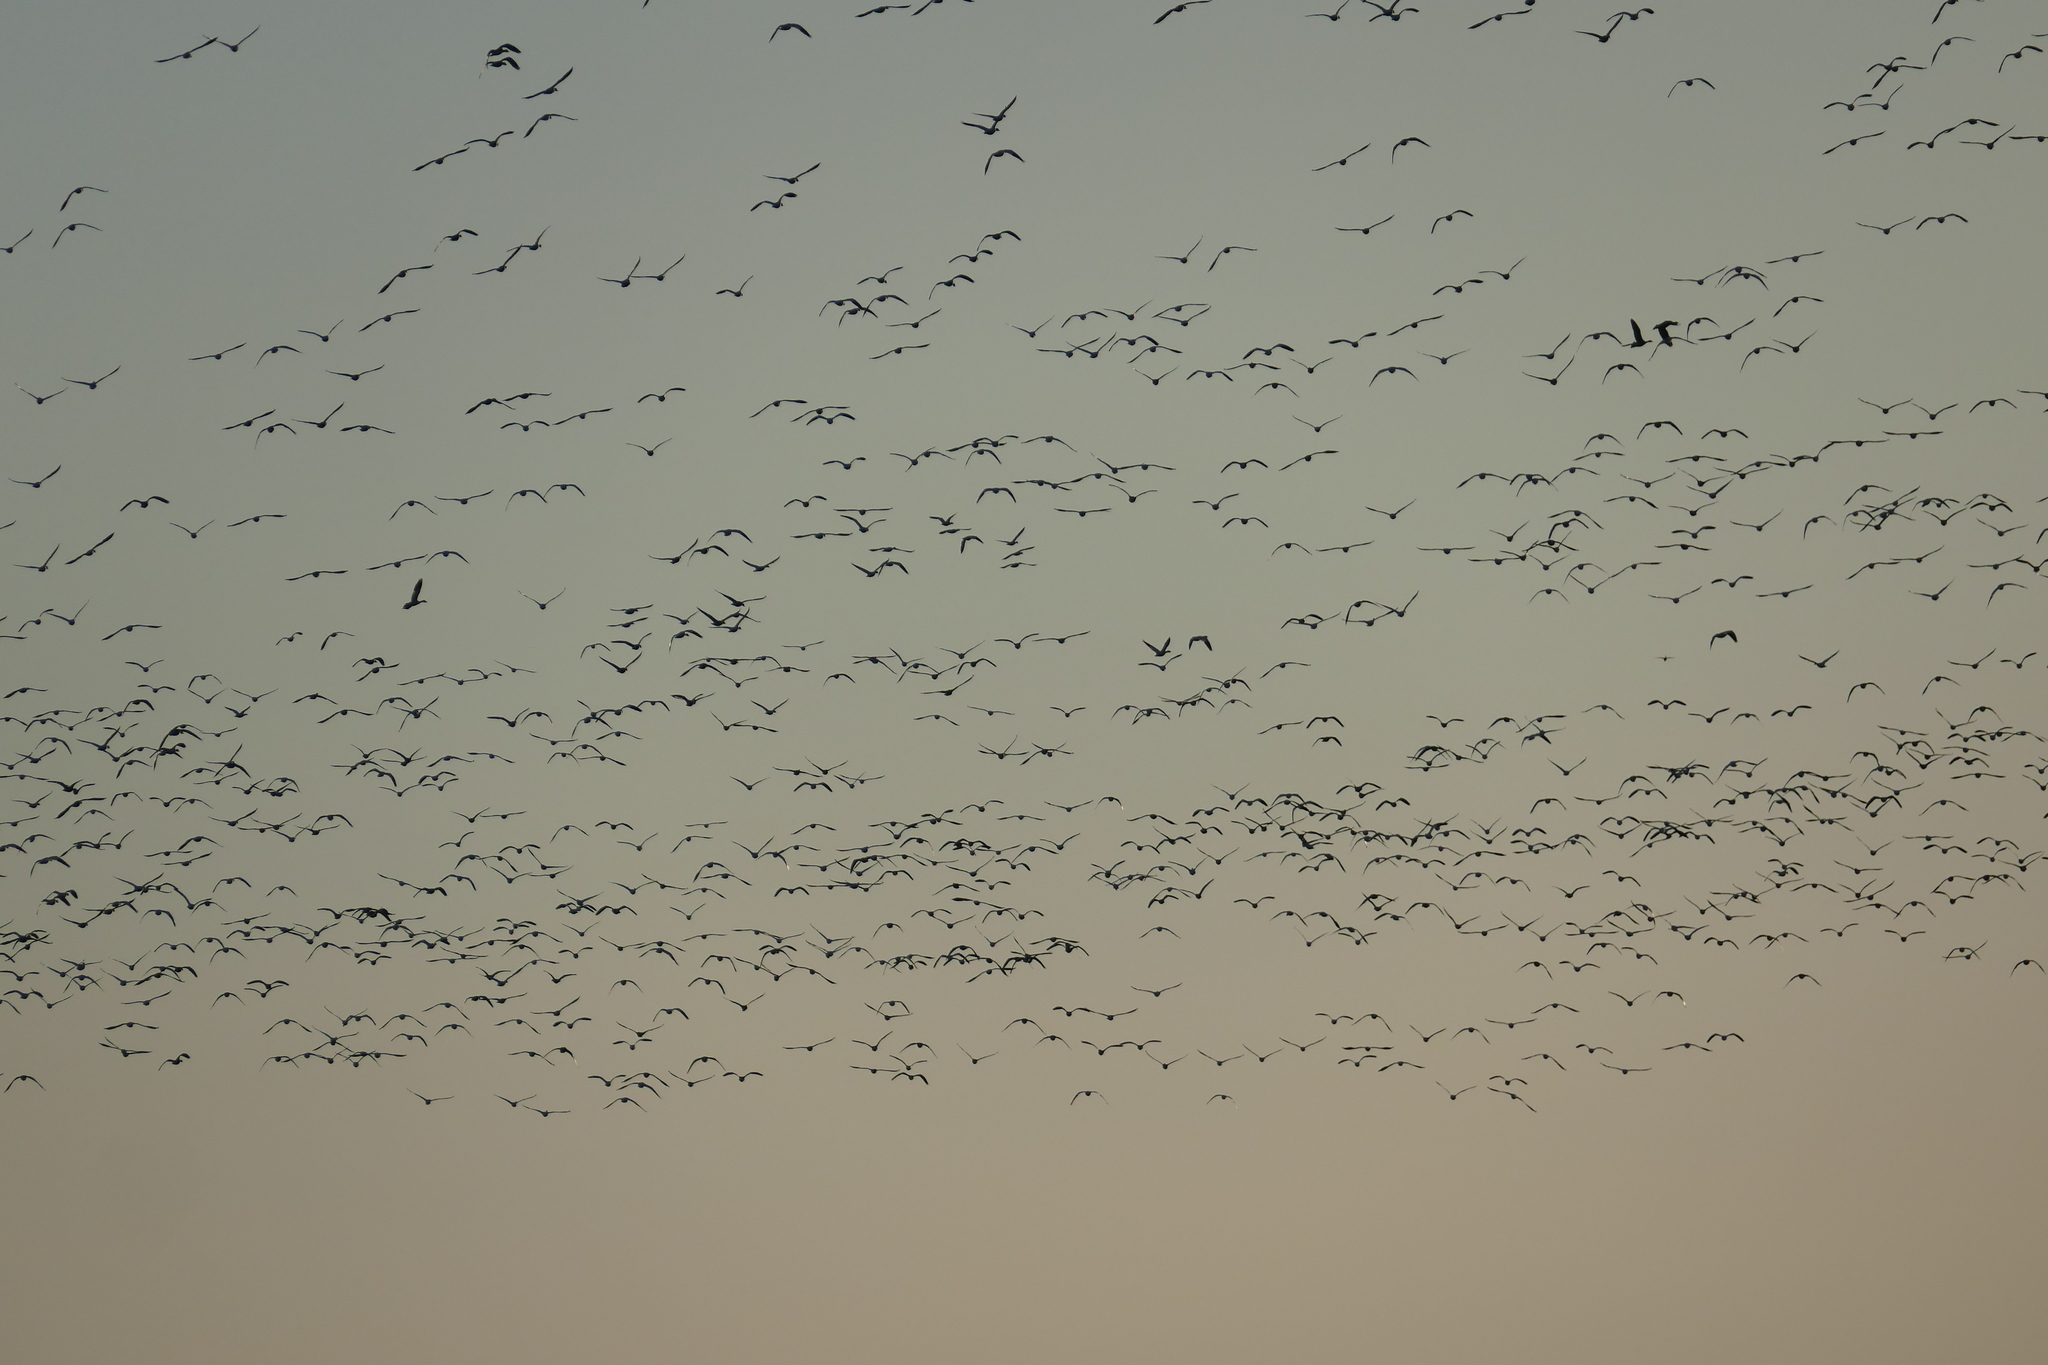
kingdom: Animalia
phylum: Chordata
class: Aves
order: Anseriformes
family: Anatidae
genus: Branta
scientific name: Branta canadensis
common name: Canada goose
